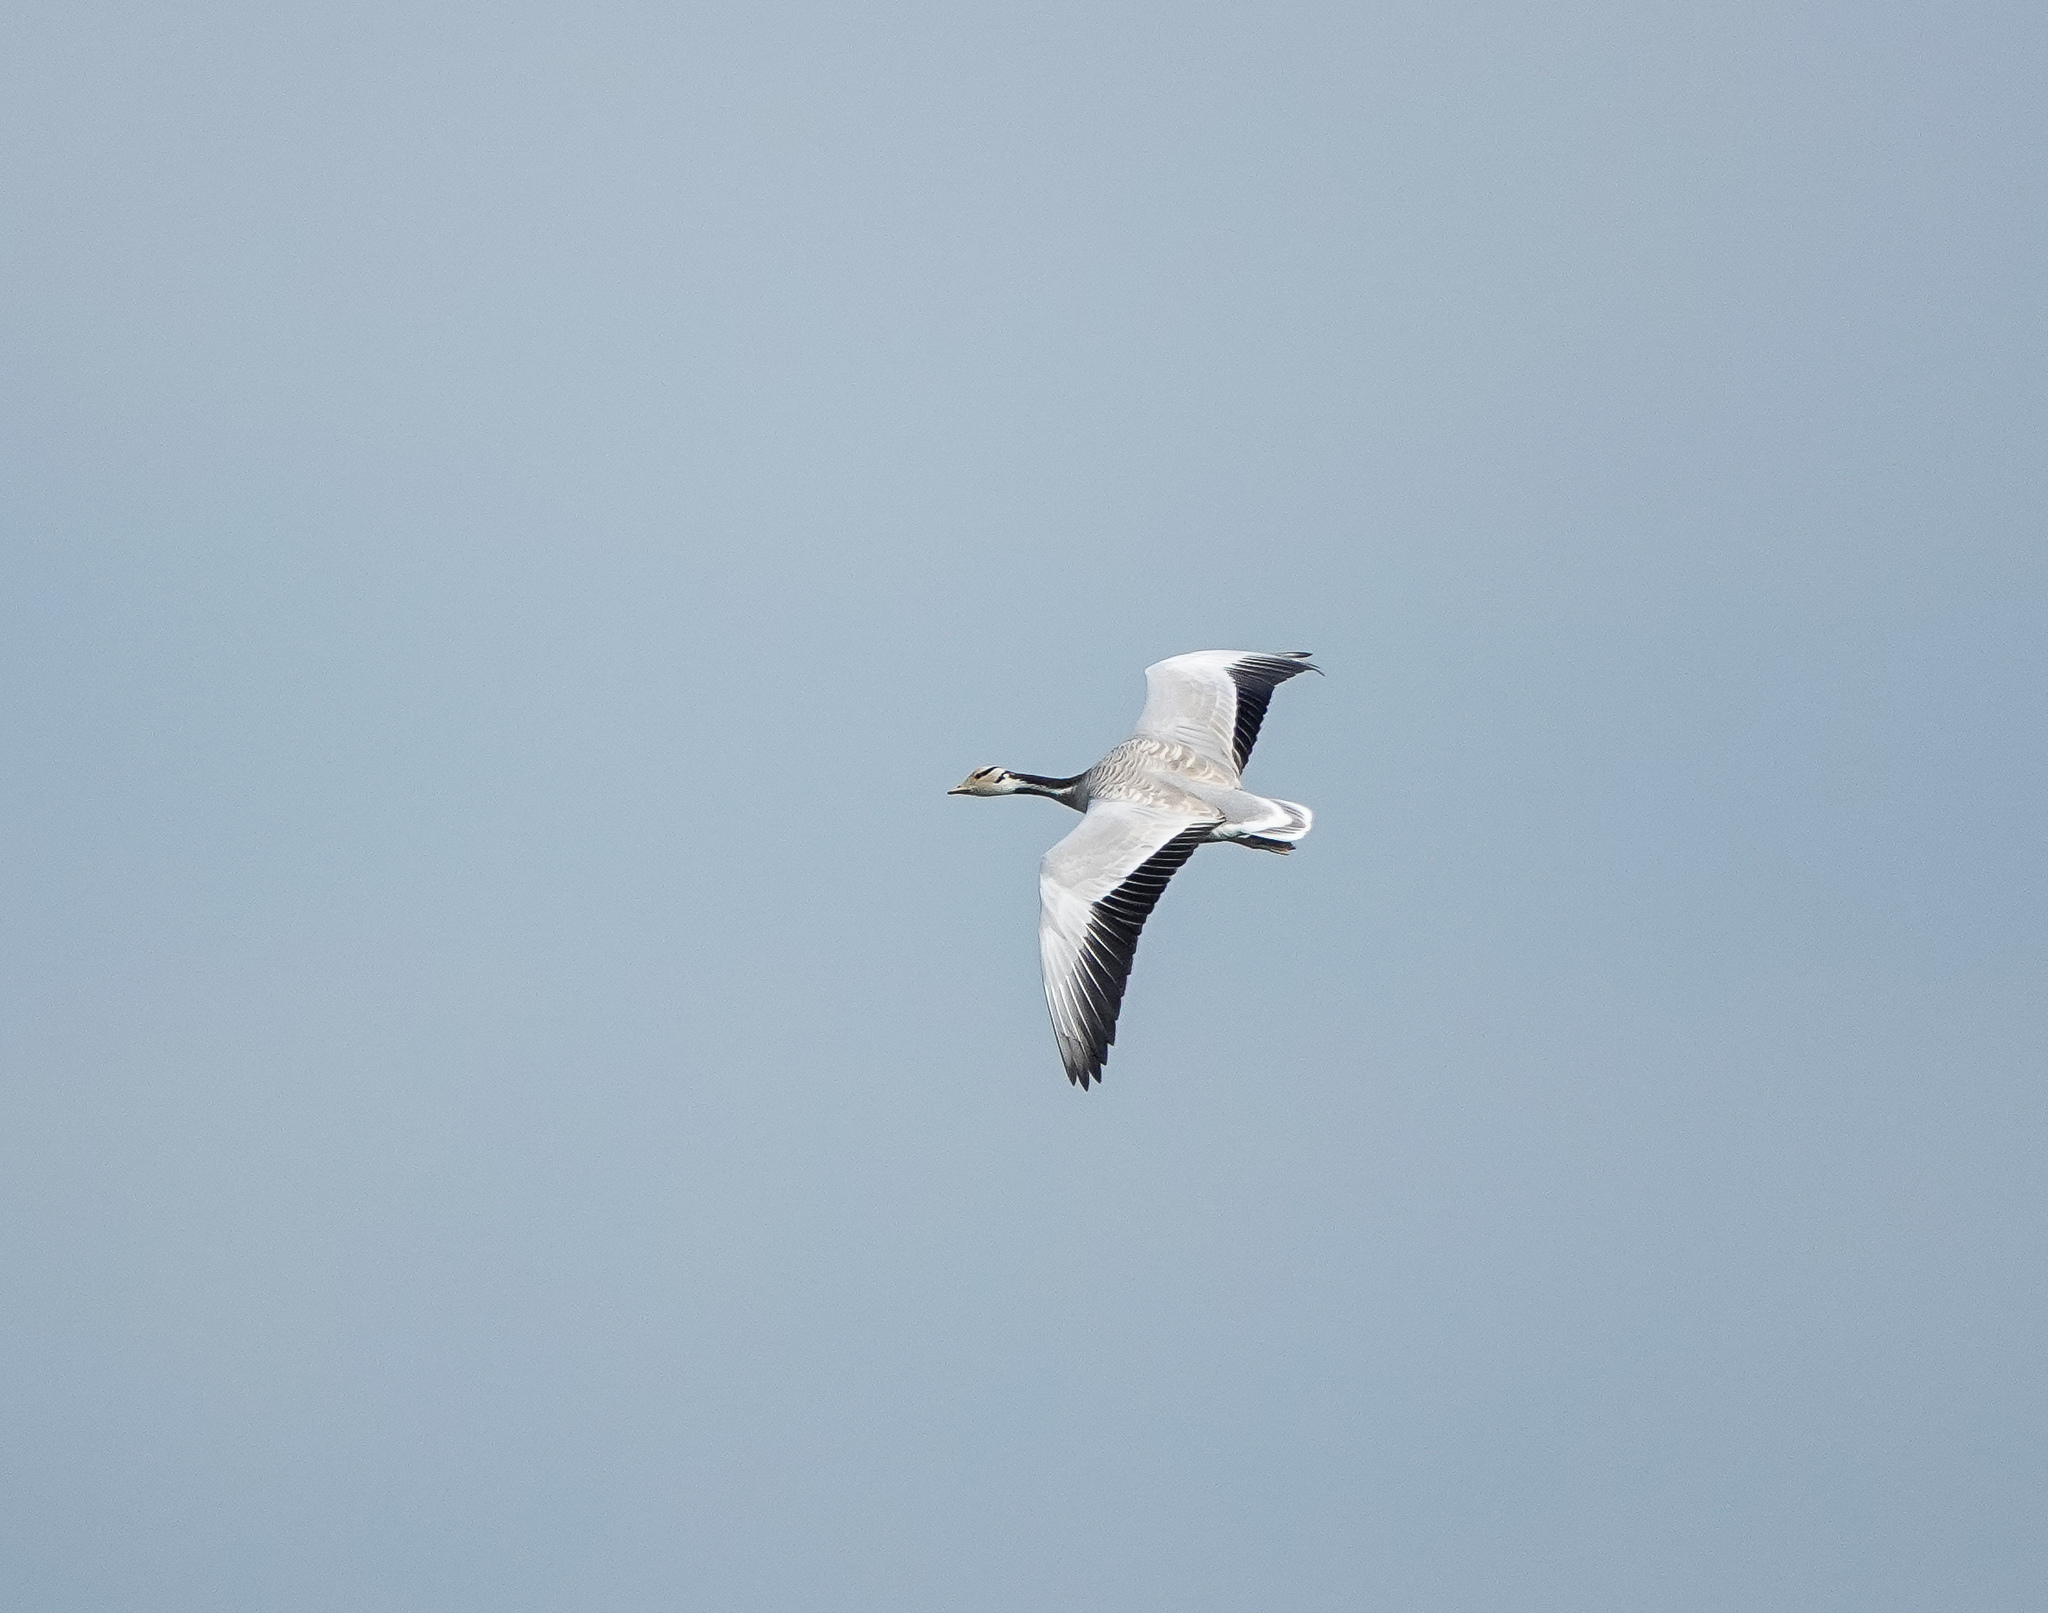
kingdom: Animalia
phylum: Chordata
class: Aves
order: Anseriformes
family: Anatidae
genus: Anser
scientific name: Anser indicus
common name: Bar-headed goose
